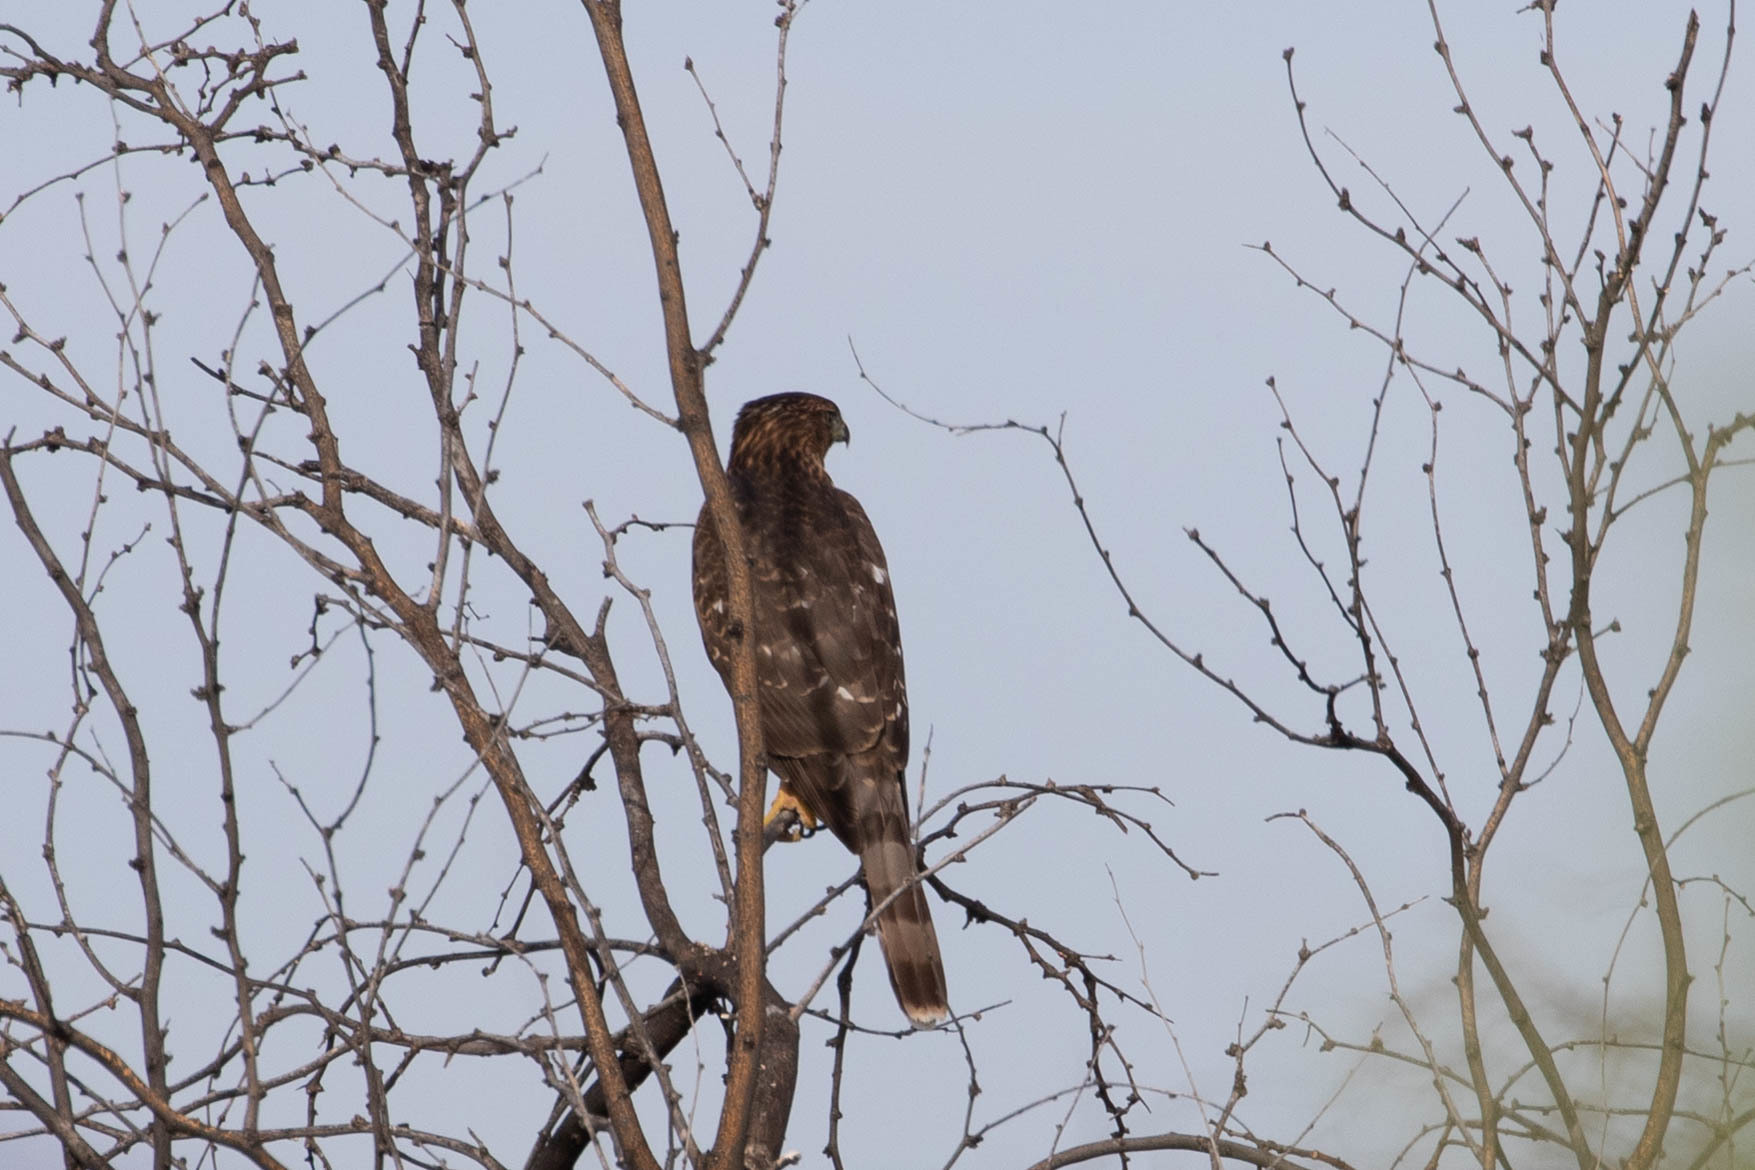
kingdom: Animalia
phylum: Chordata
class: Aves
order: Accipitriformes
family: Accipitridae
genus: Accipiter
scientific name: Accipiter cooperii
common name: Cooper's hawk
